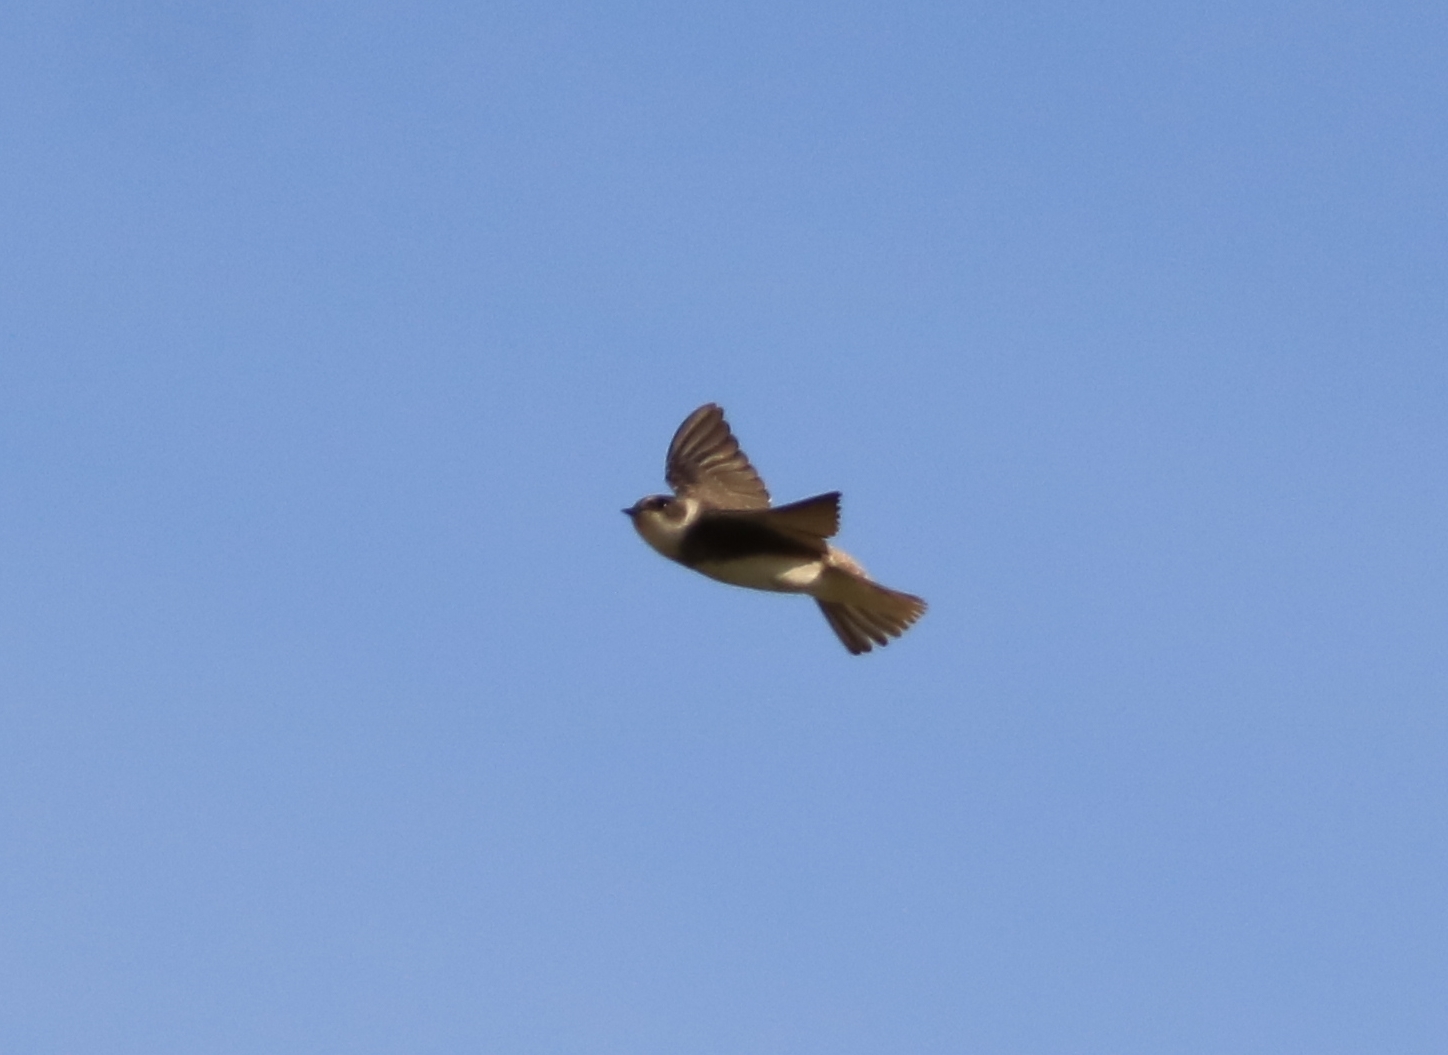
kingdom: Animalia
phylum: Chordata
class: Aves
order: Passeriformes
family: Hirundinidae
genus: Riparia
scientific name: Riparia riparia
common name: Sand martin
